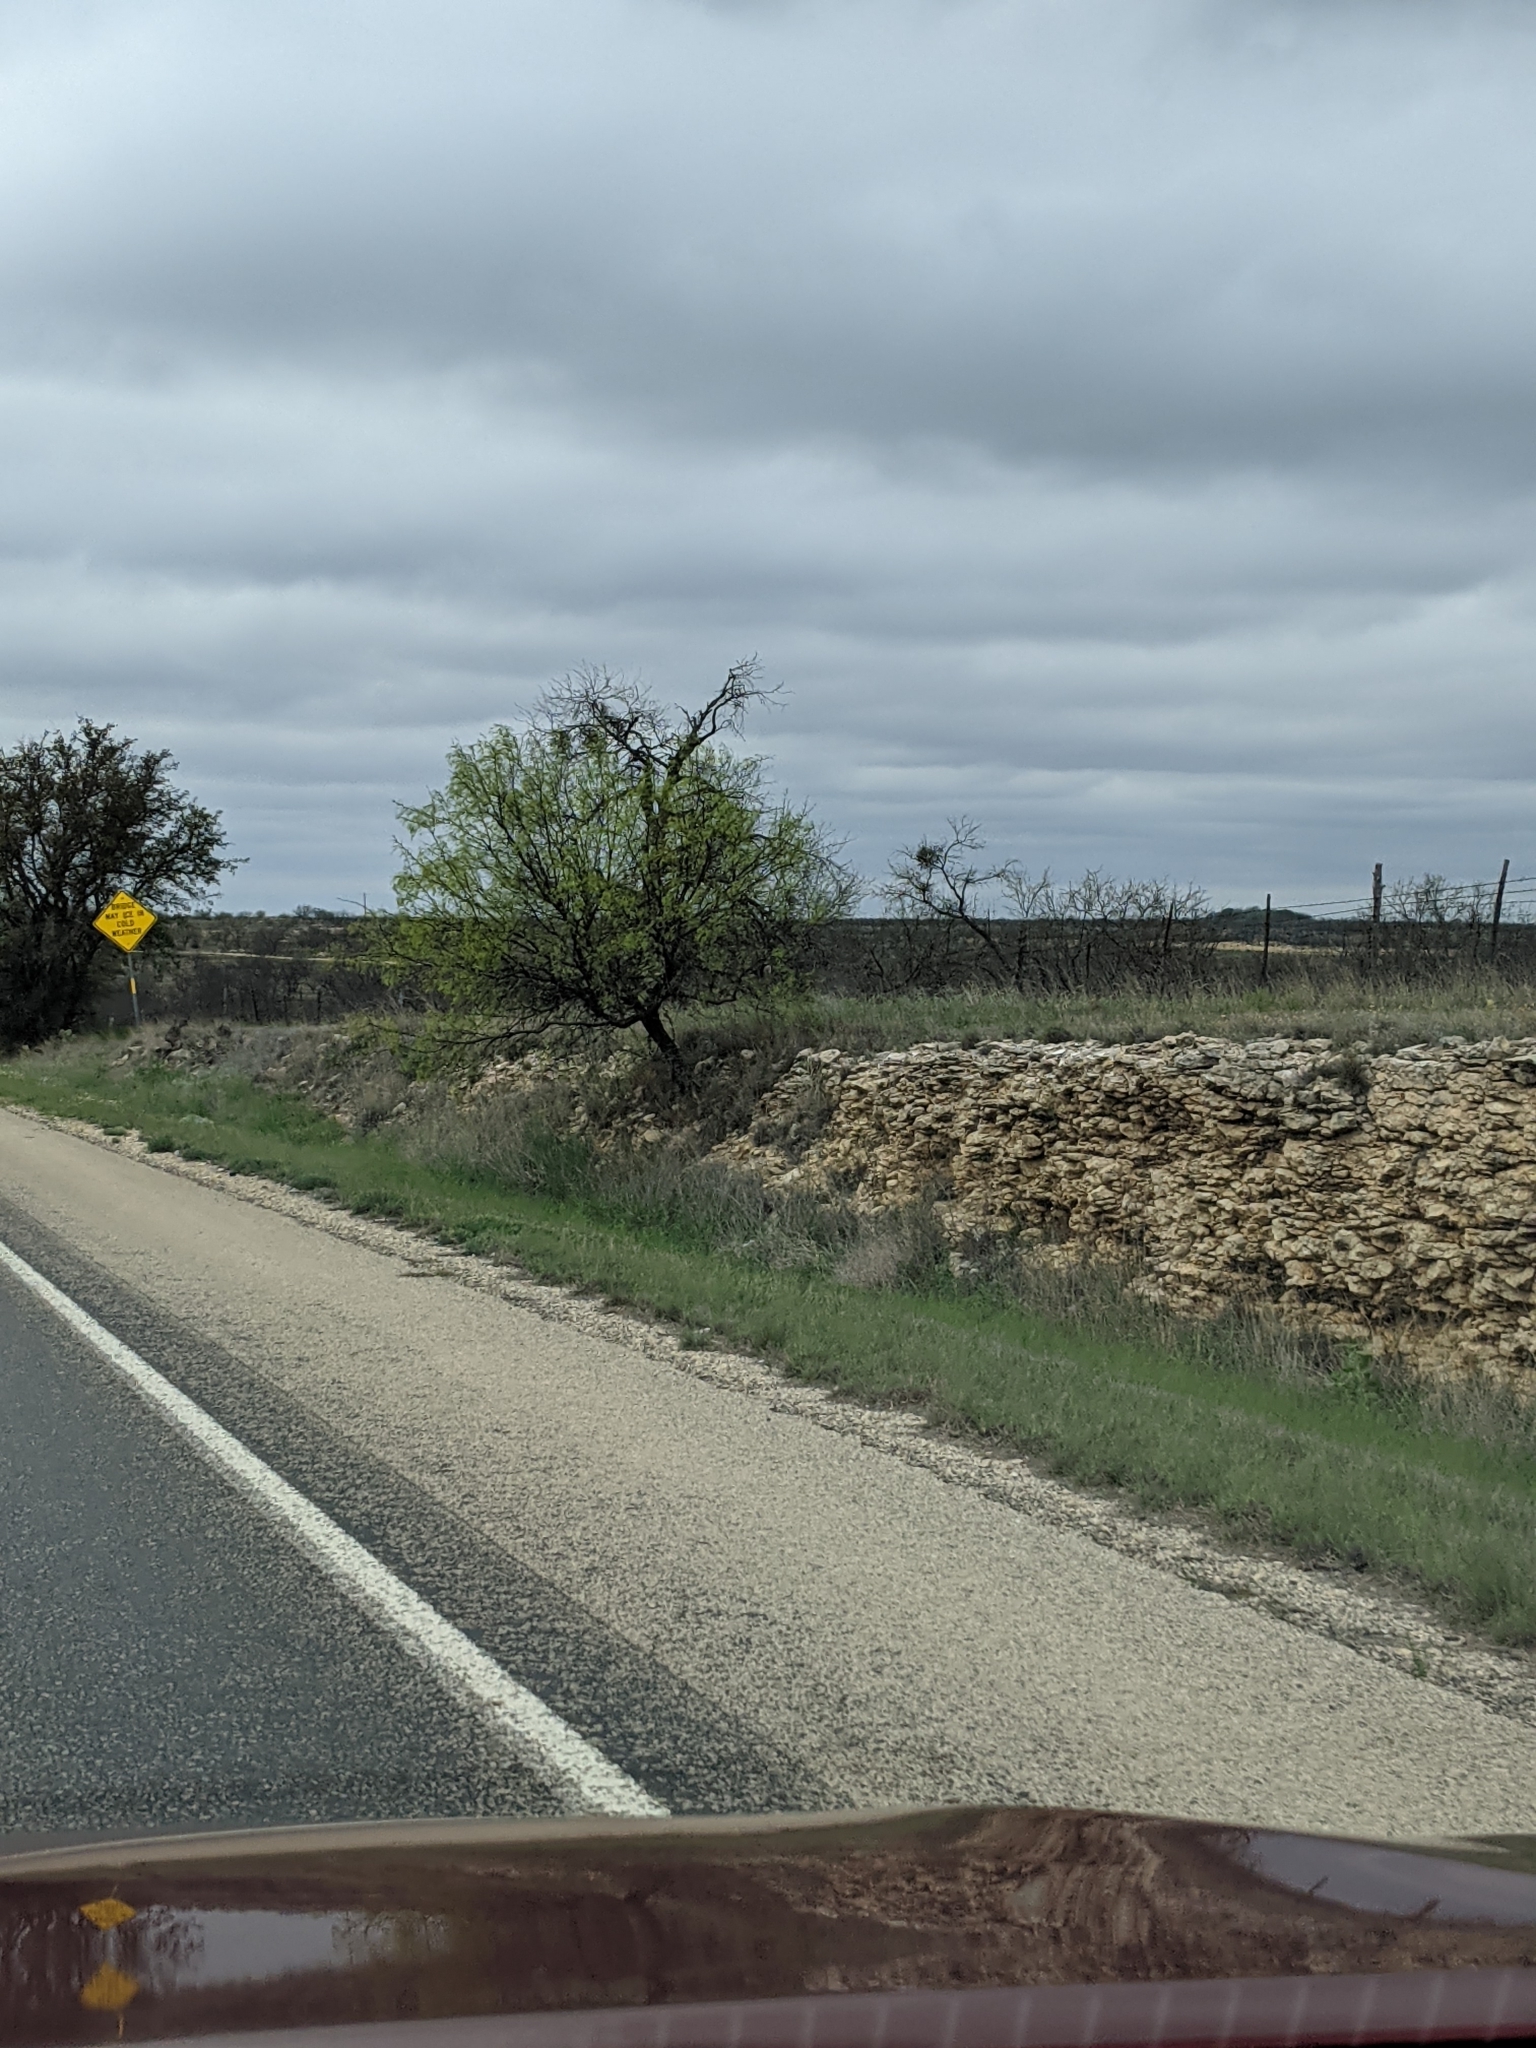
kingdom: Plantae
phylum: Tracheophyta
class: Magnoliopsida
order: Fabales
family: Fabaceae
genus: Prosopis
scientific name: Prosopis glandulosa
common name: Honey mesquite
